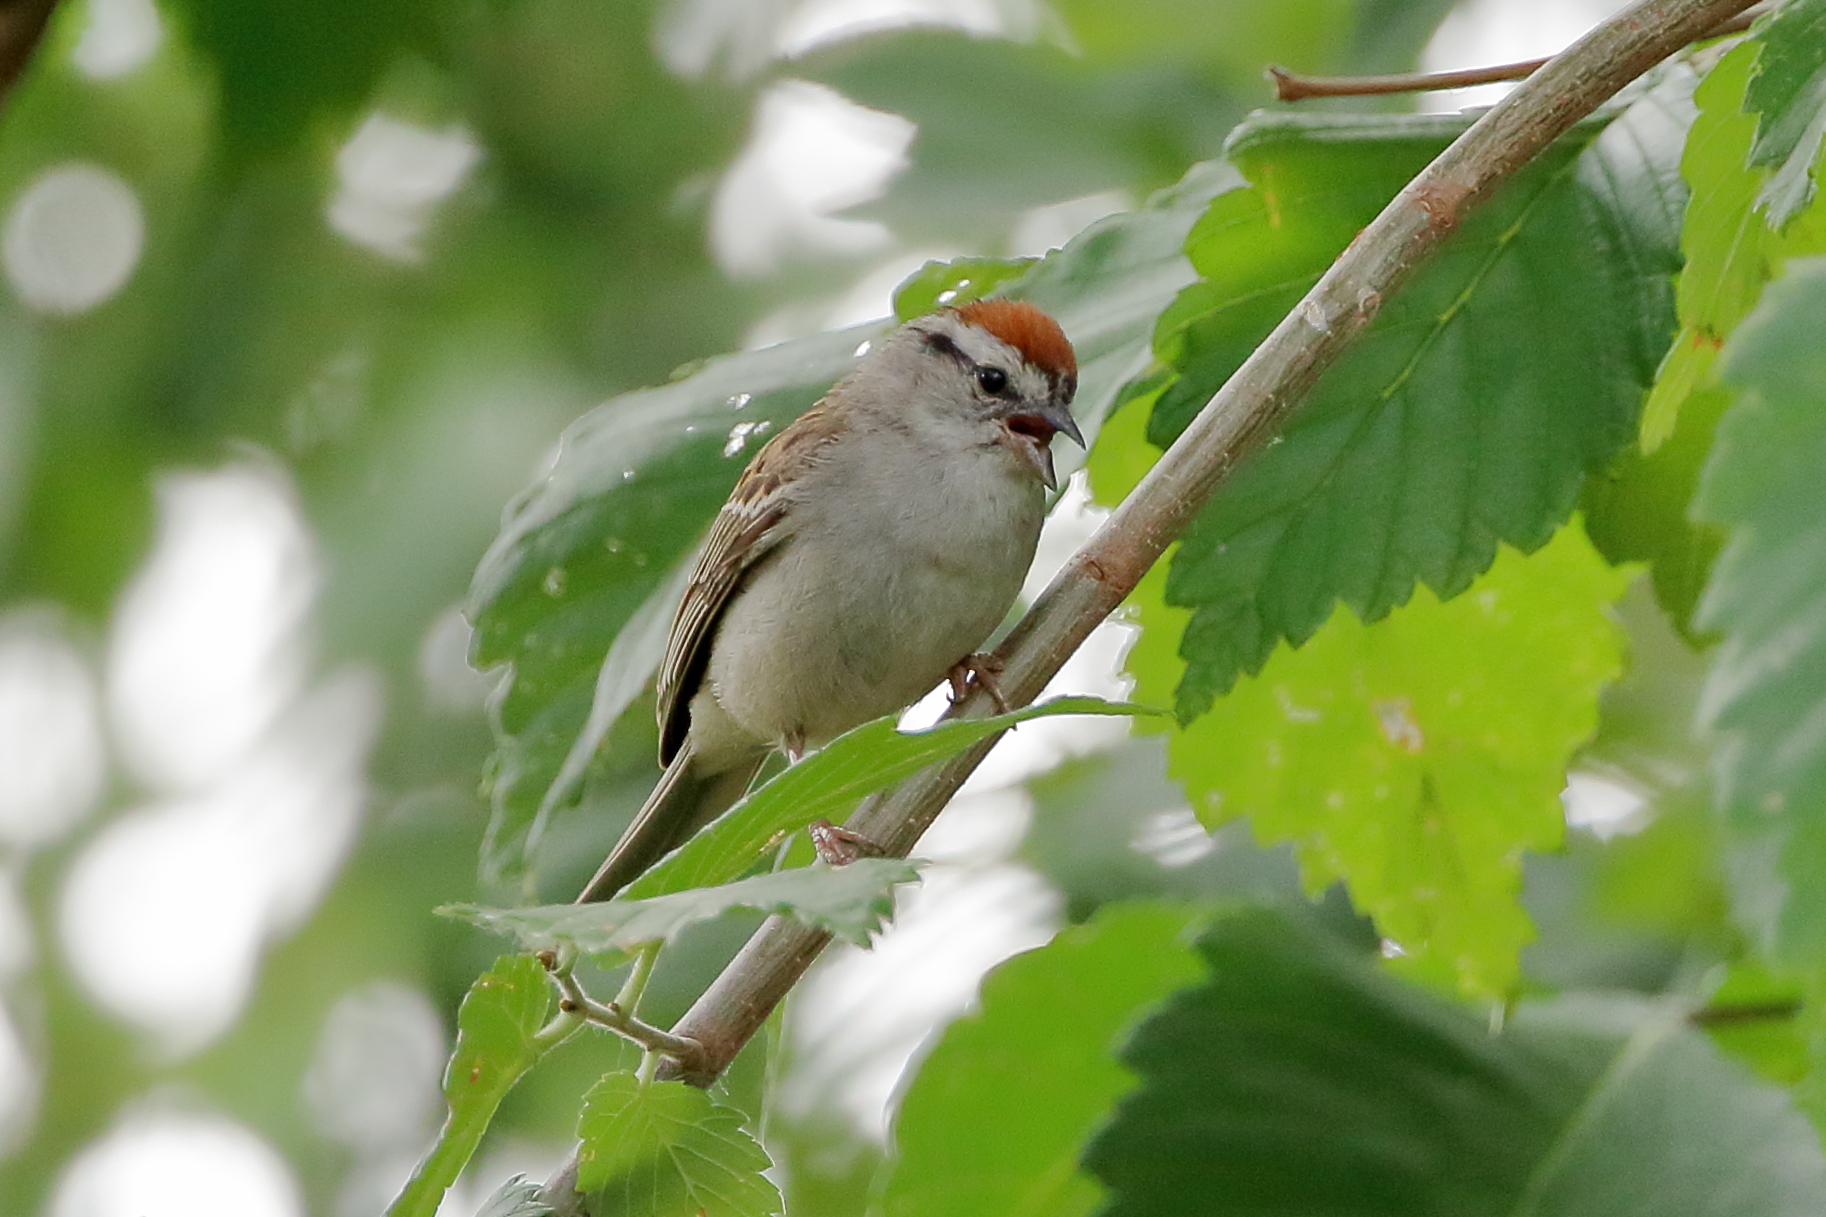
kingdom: Animalia
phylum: Chordata
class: Aves
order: Passeriformes
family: Passerellidae
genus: Spizella
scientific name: Spizella passerina
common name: Chipping sparrow
